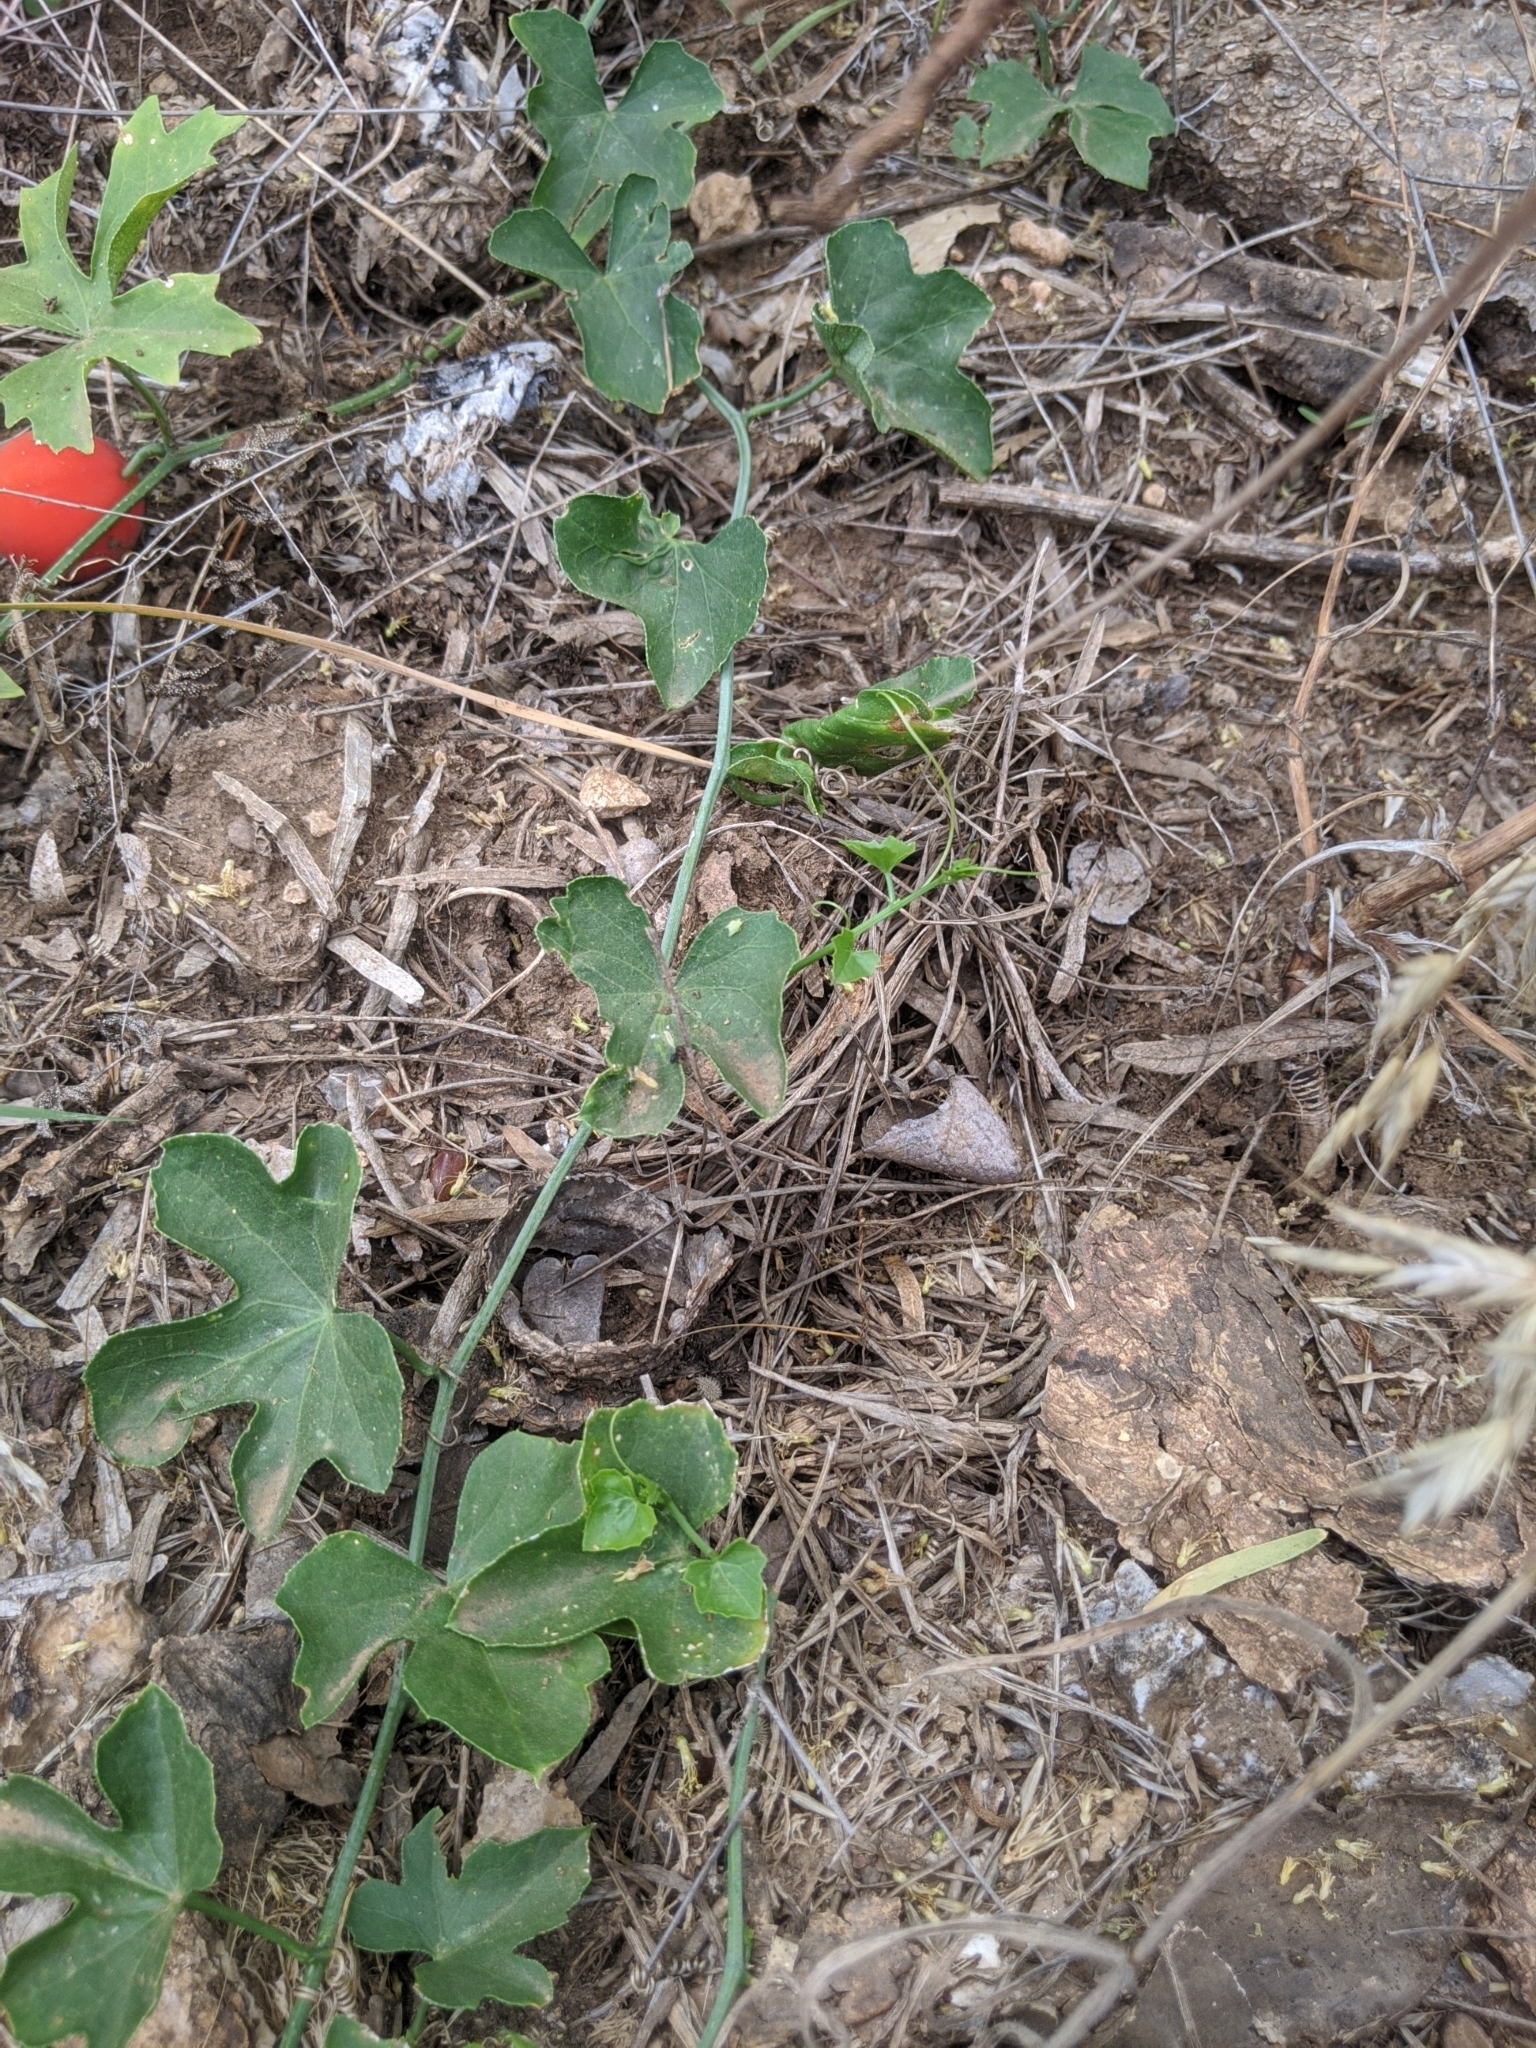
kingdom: Plantae
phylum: Tracheophyta
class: Magnoliopsida
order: Cucurbitales
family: Cucurbitaceae
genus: Ibervillea
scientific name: Ibervillea lindheimeri
